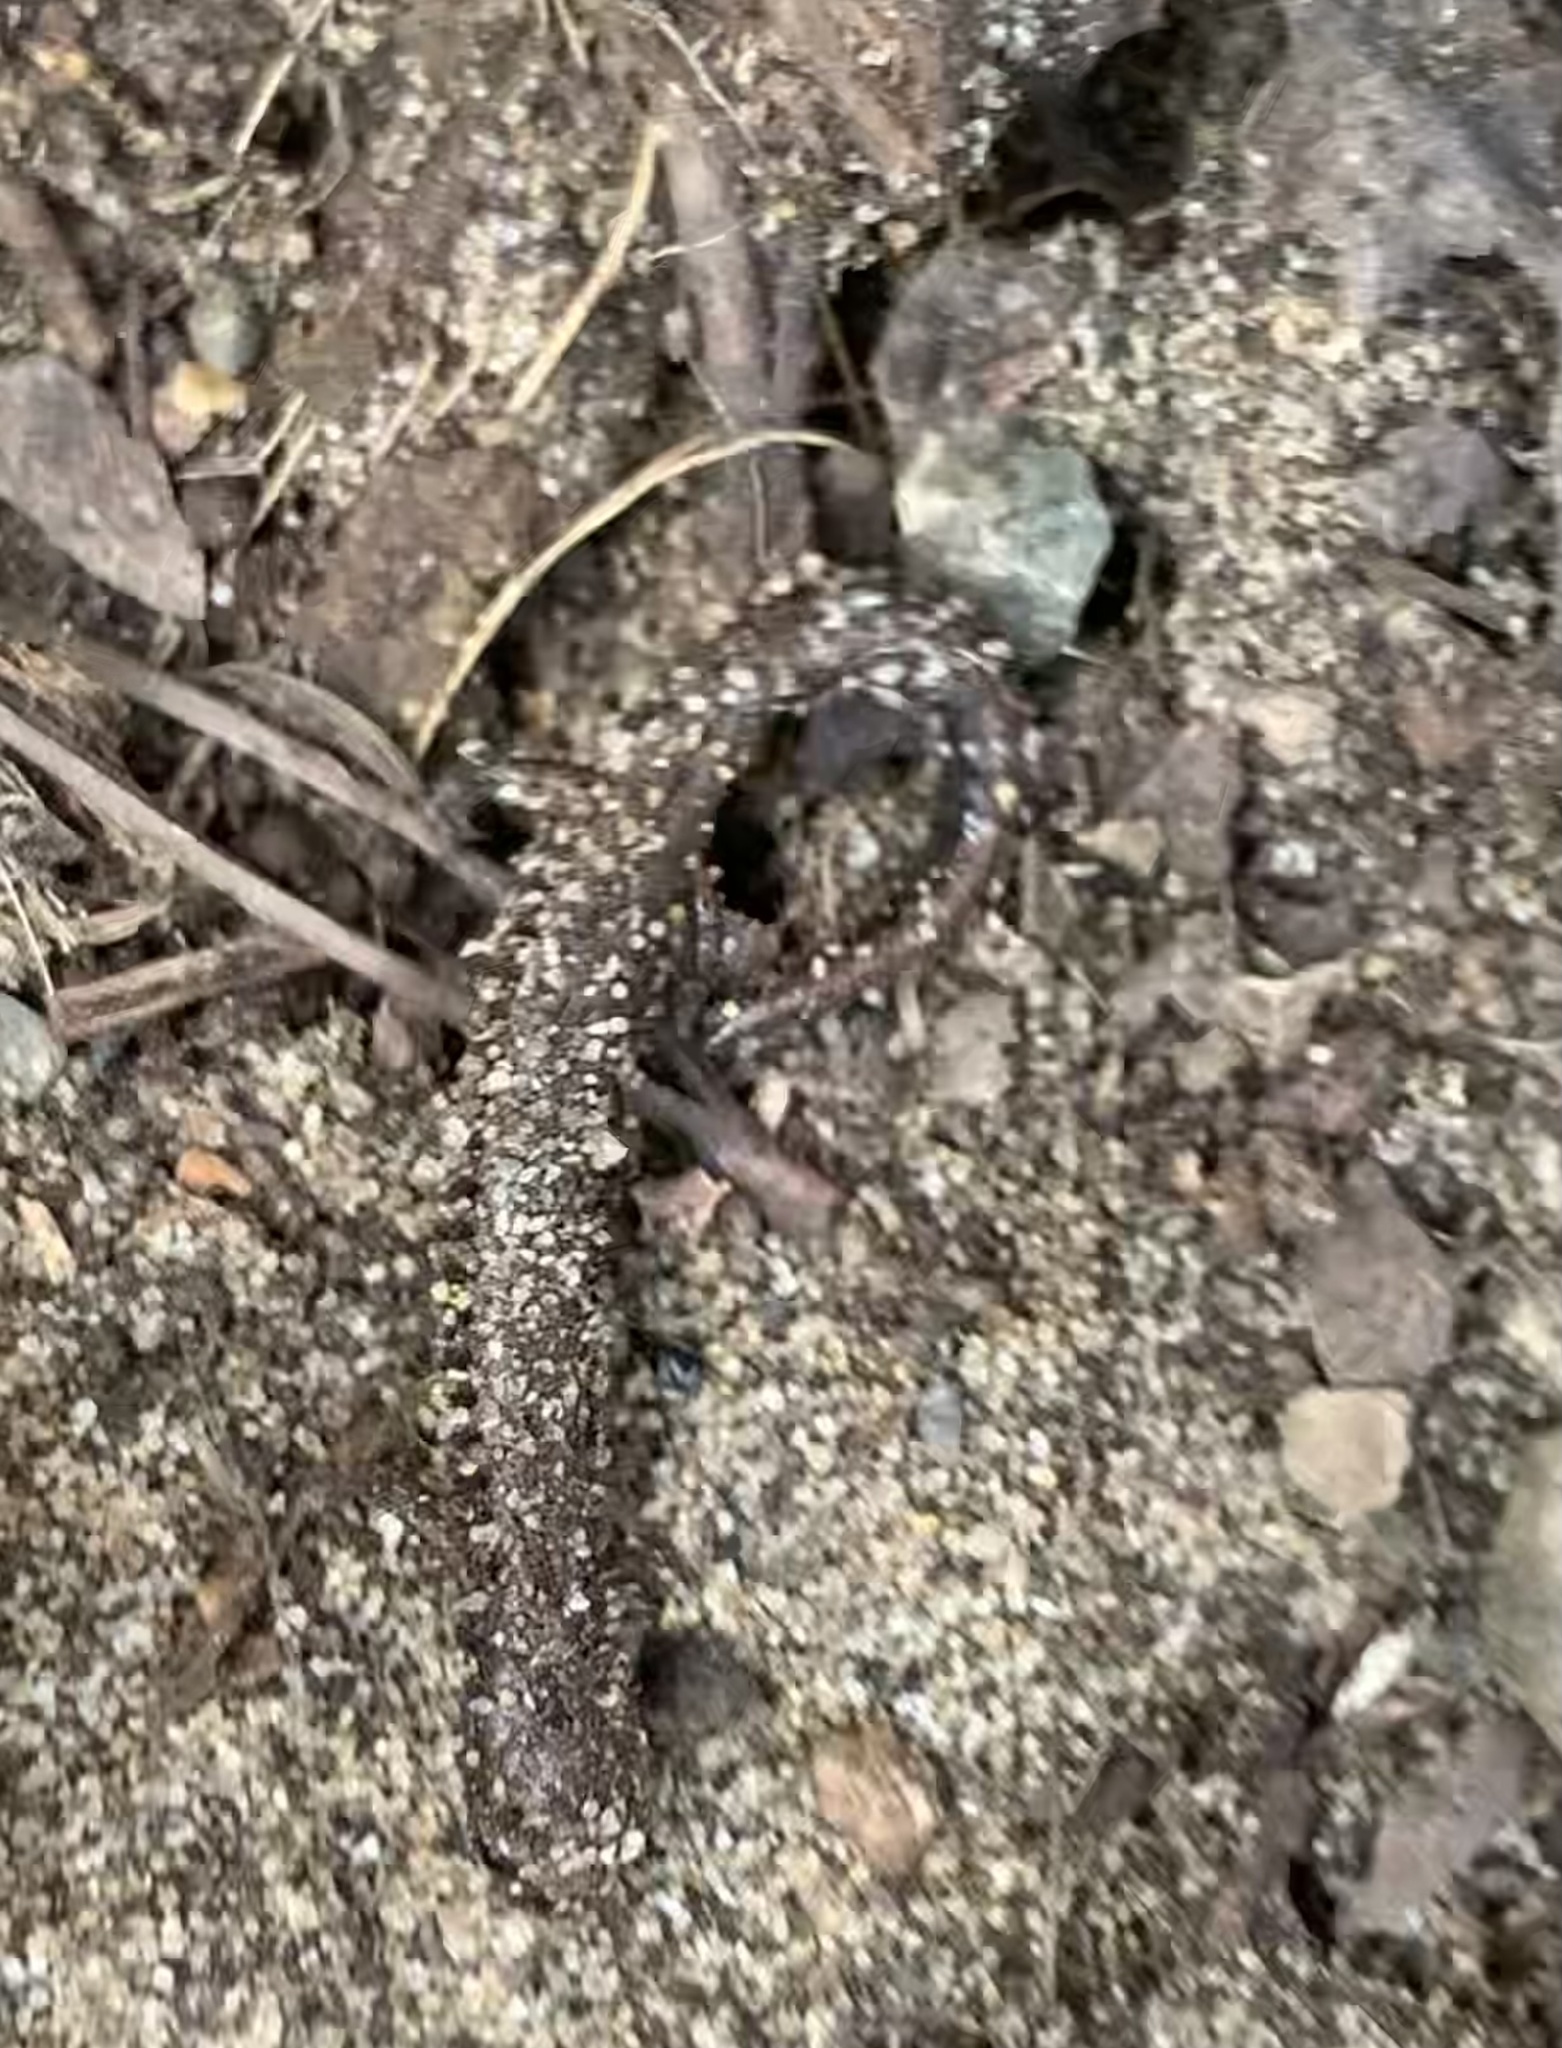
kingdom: Animalia
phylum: Chordata
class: Amphibia
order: Caudata
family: Plethodontidae
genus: Batrachoseps
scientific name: Batrachoseps attenuatus
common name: California slender salamander
